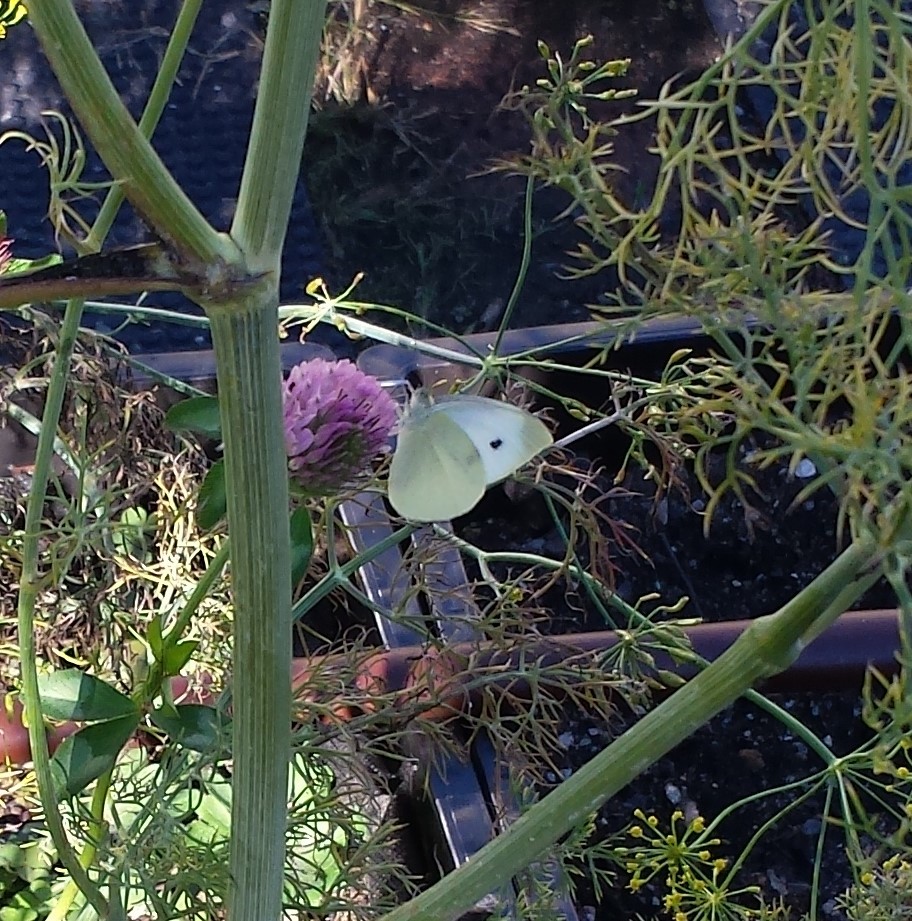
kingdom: Animalia
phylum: Arthropoda
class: Insecta
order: Lepidoptera
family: Pieridae
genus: Pieris
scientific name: Pieris rapae
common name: Small white
